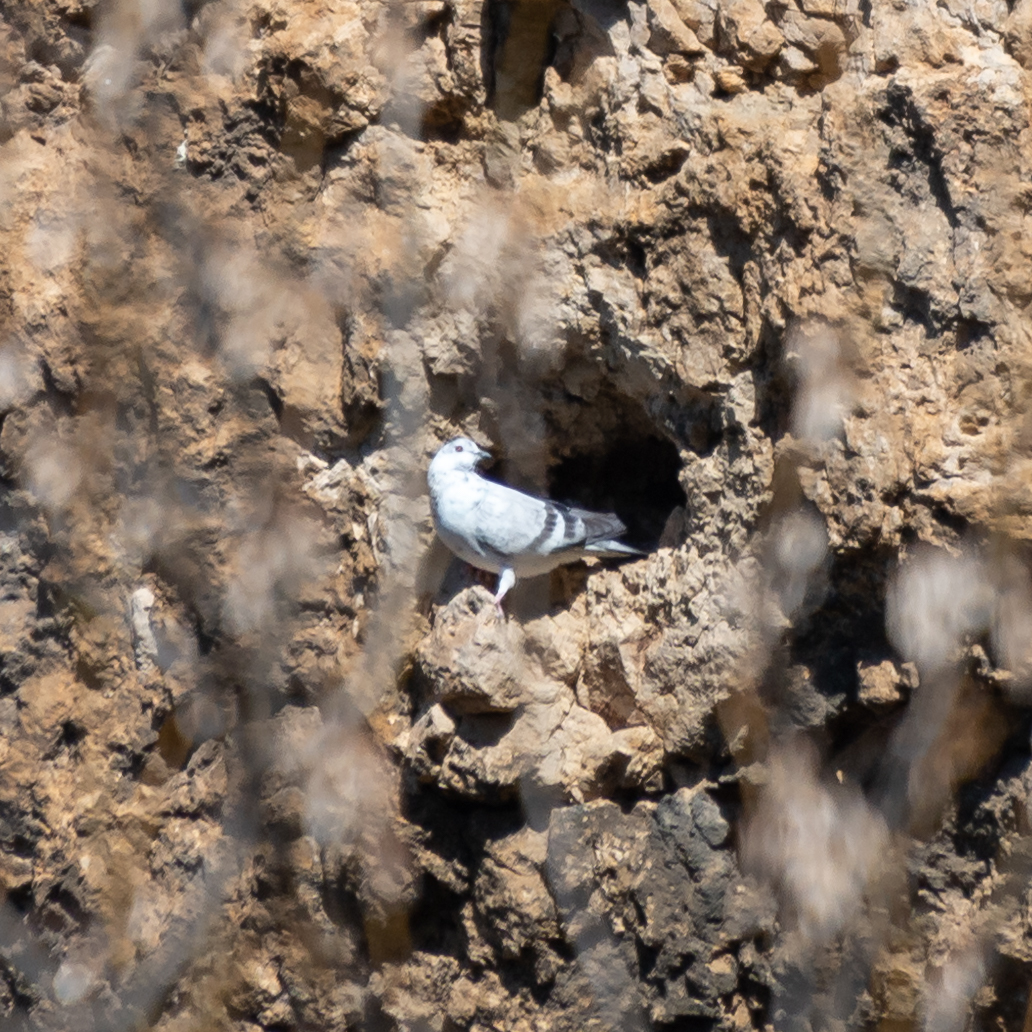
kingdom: Animalia
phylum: Chordata
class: Aves
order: Columbiformes
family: Columbidae
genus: Columba
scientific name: Columba livia
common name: Rock pigeon
